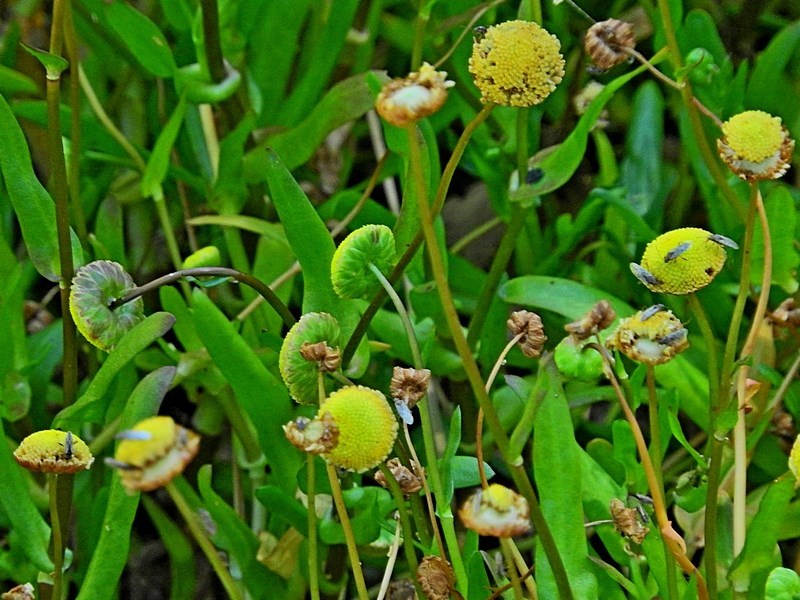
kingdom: Plantae
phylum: Tracheophyta
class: Magnoliopsida
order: Asterales
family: Asteraceae
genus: Cotula
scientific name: Cotula coronopifolia
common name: Buttonweed
